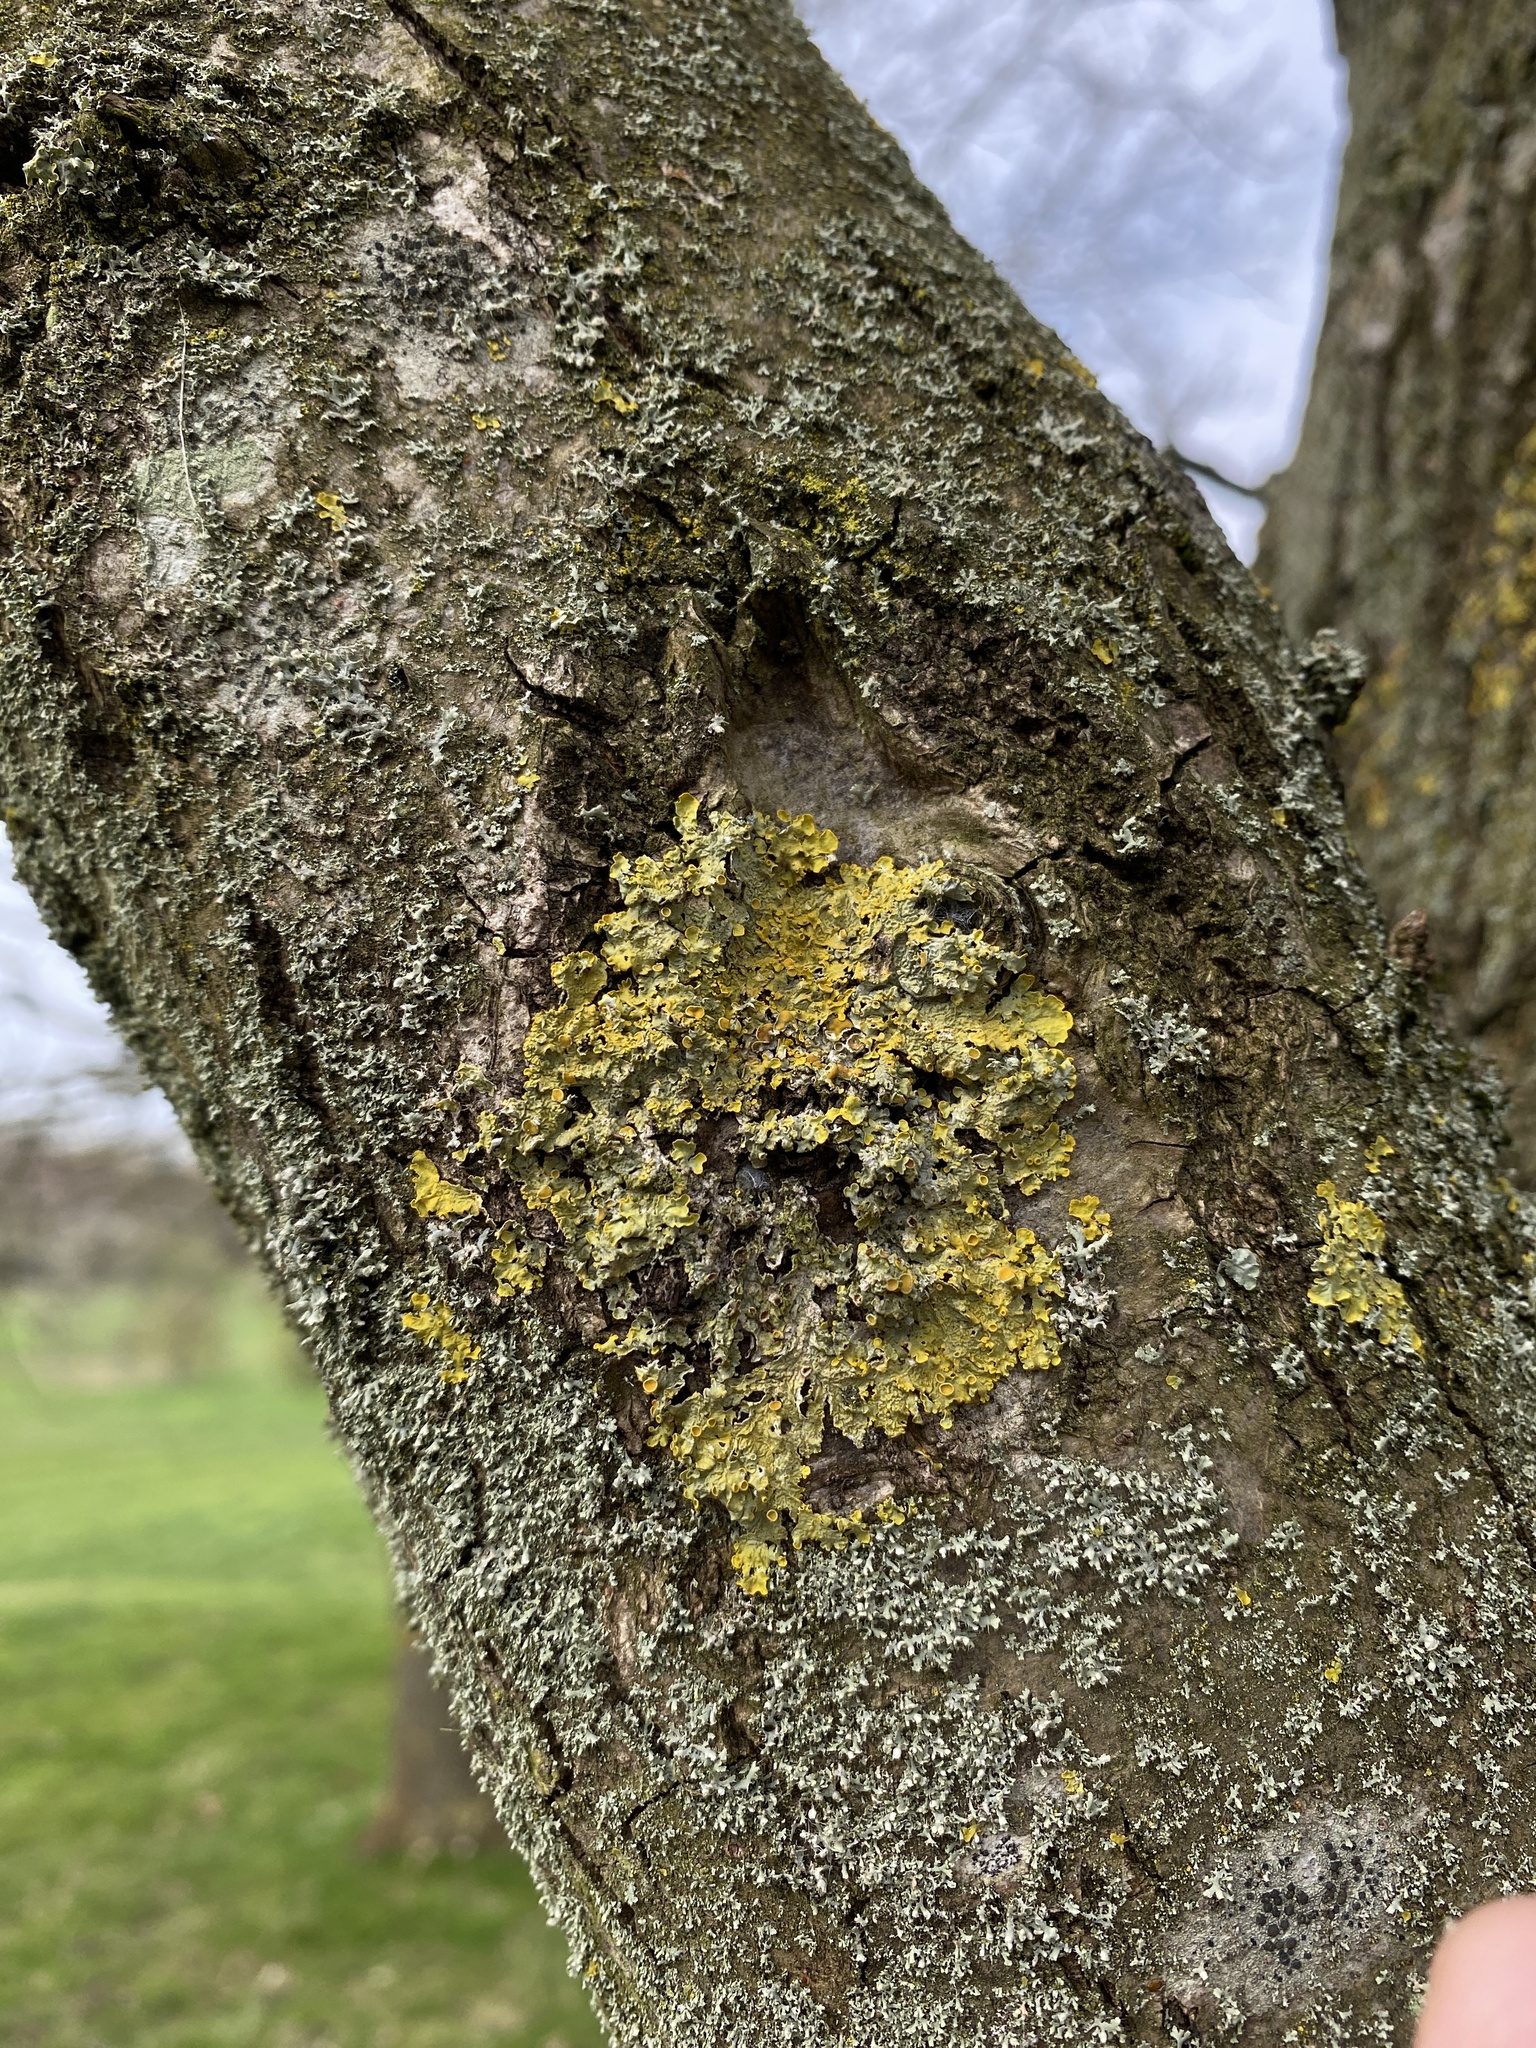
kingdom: Fungi
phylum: Ascomycota
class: Lecanoromycetes
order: Teloschistales
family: Teloschistaceae
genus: Xanthoria
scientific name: Xanthoria parietina
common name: Common orange lichen
